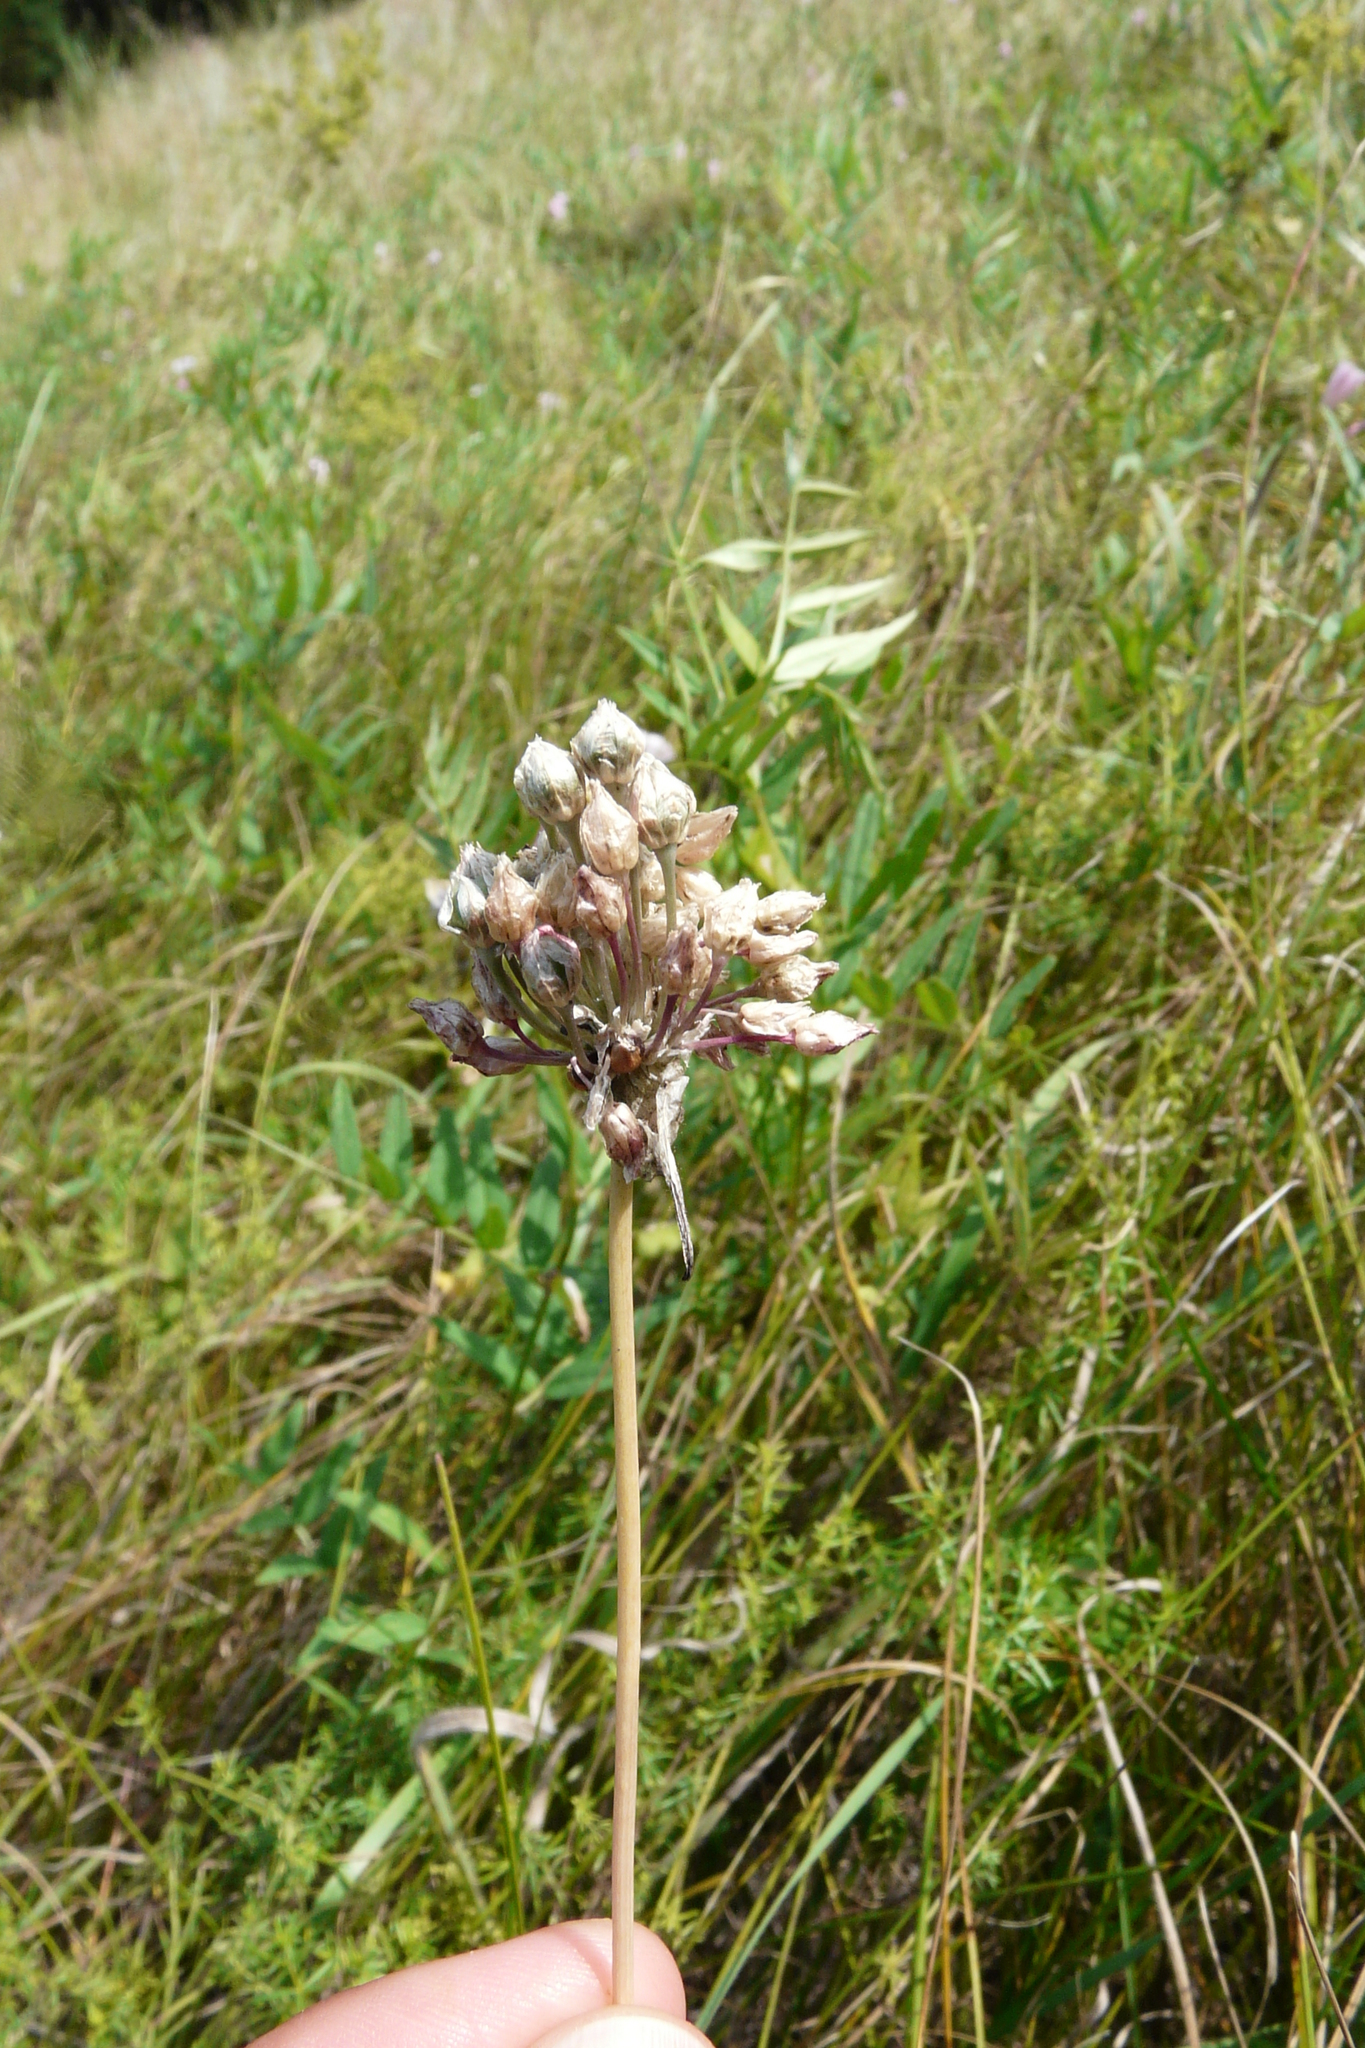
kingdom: Plantae
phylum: Tracheophyta
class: Liliopsida
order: Asparagales
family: Amaryllidaceae
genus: Allium
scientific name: Allium rotundum
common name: Sand leek
